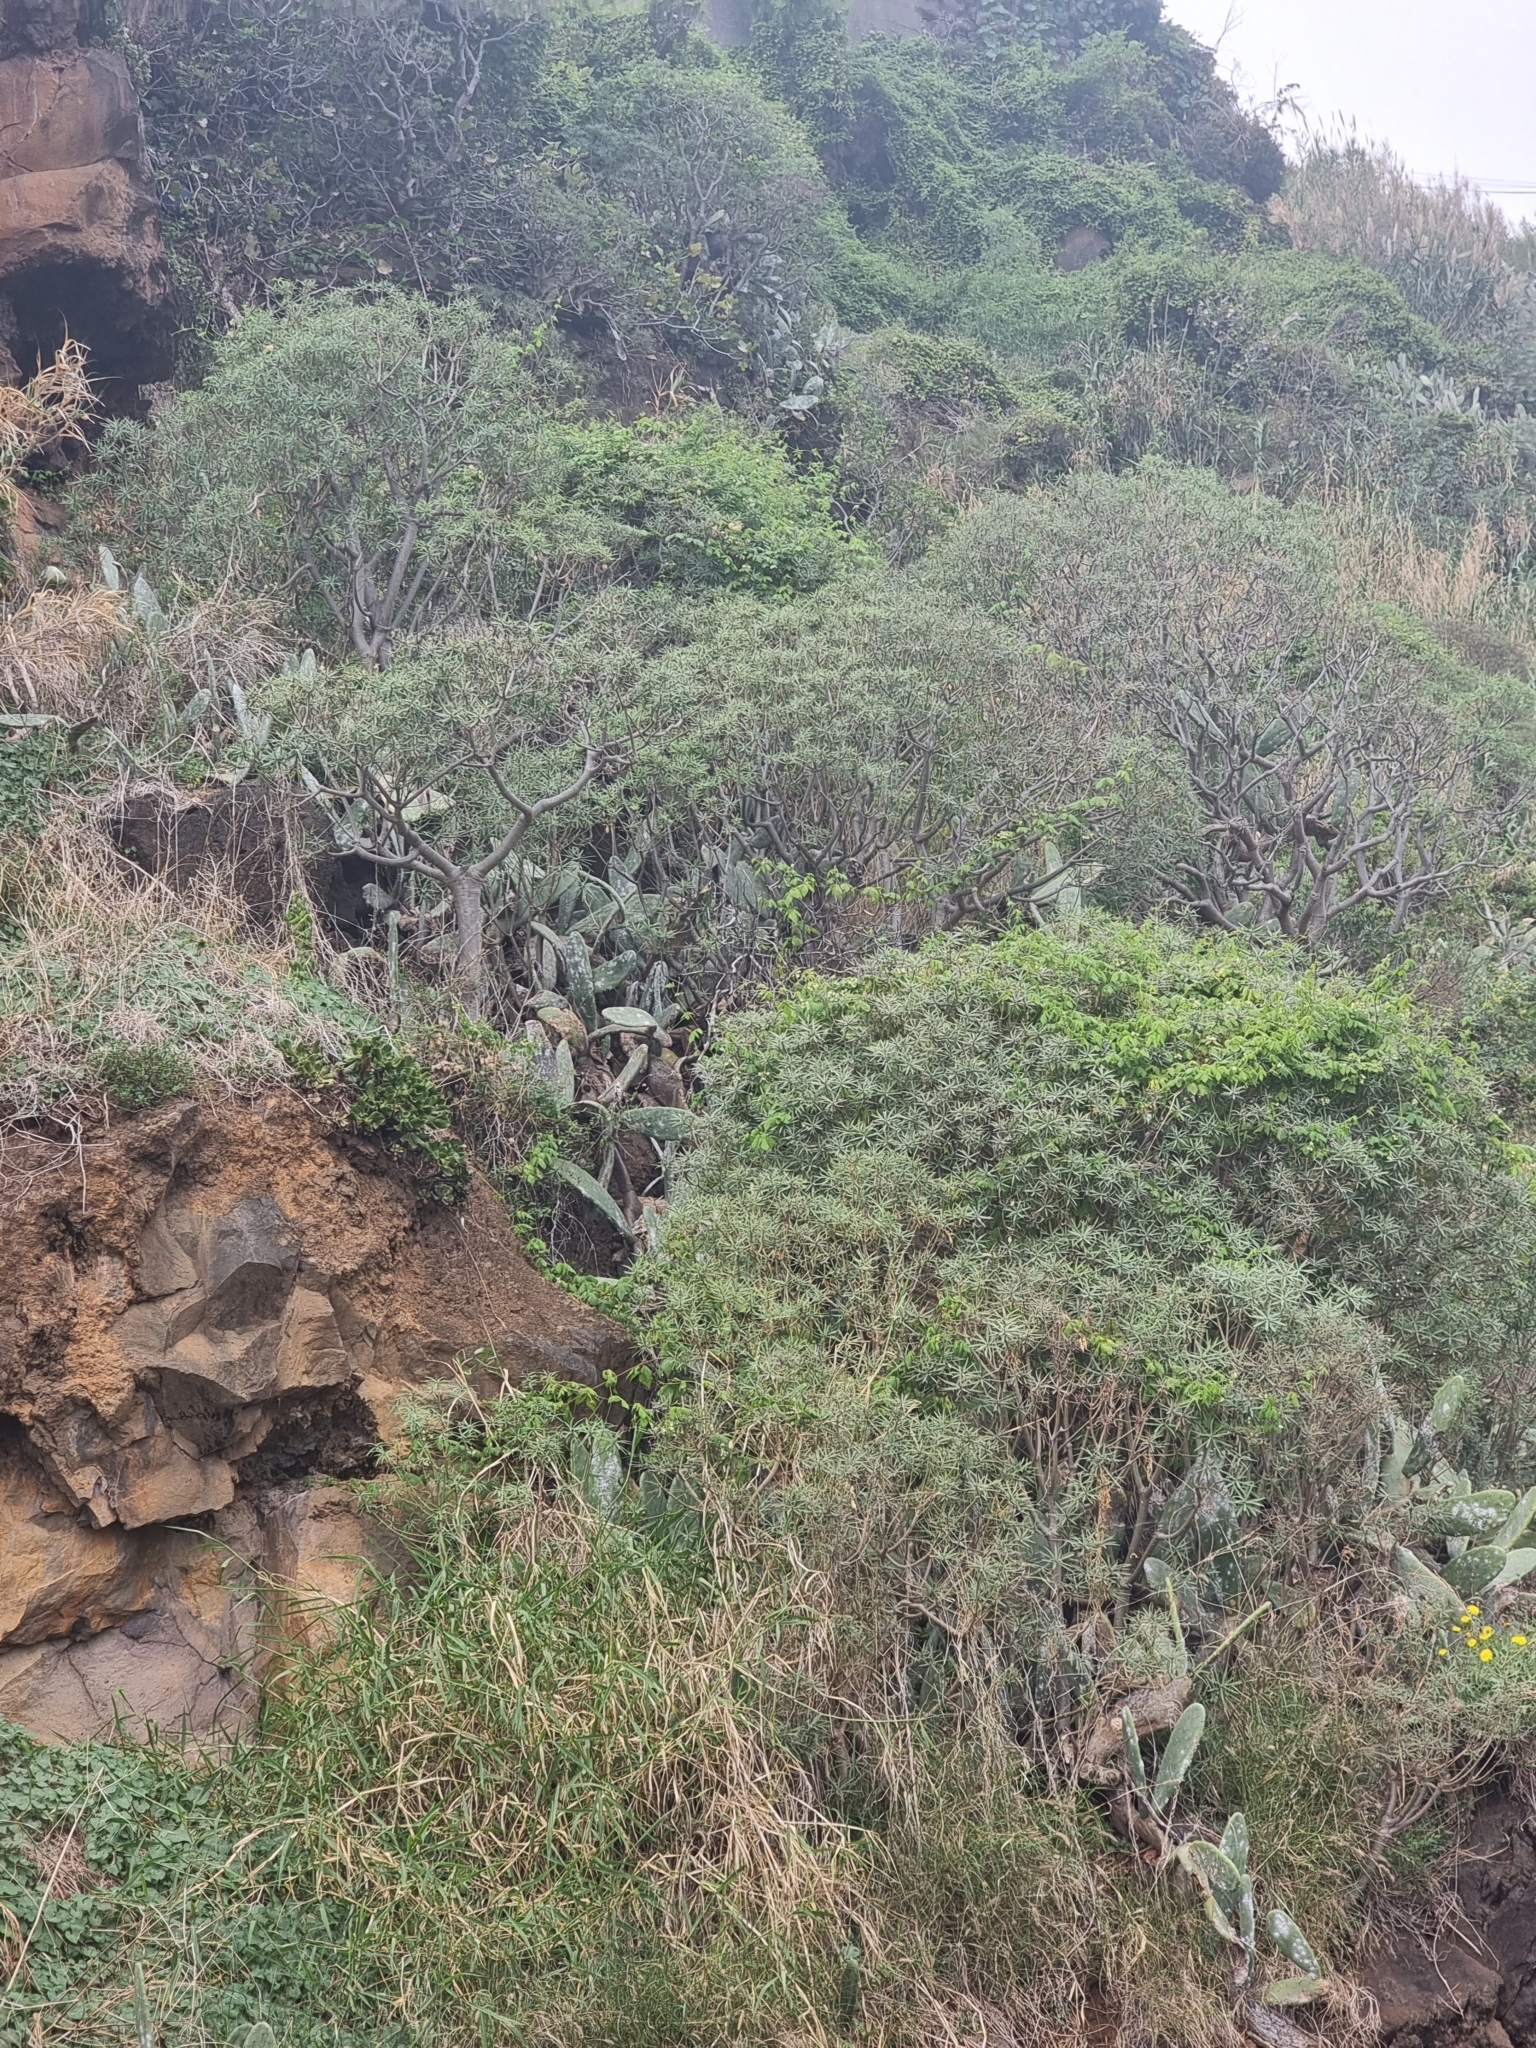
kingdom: Plantae
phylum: Tracheophyta
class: Magnoliopsida
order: Malpighiales
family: Euphorbiaceae
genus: Euphorbia
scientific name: Euphorbia piscatoria
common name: Fish-stunning spurge
